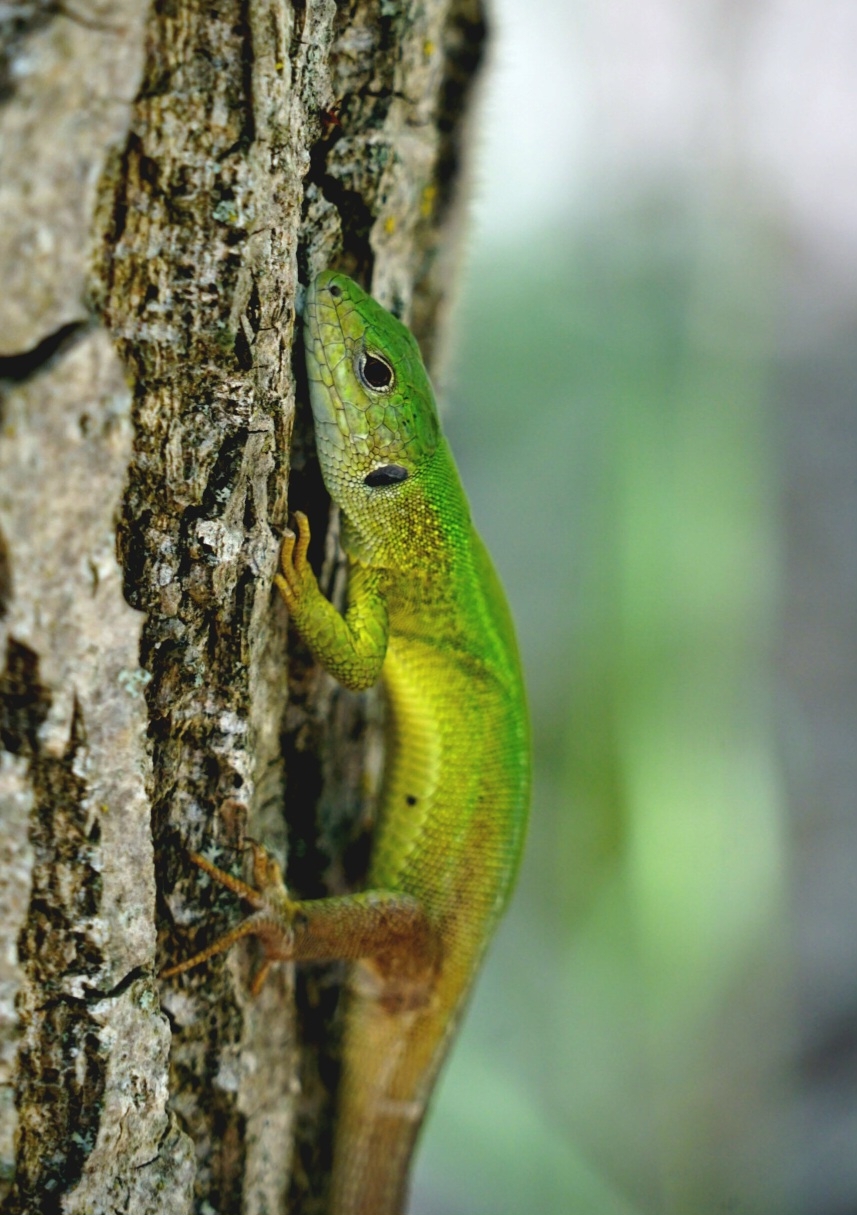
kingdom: Animalia
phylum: Chordata
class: Squamata
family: Lacertidae
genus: Lacerta
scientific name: Lacerta viridis
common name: European green lizard
